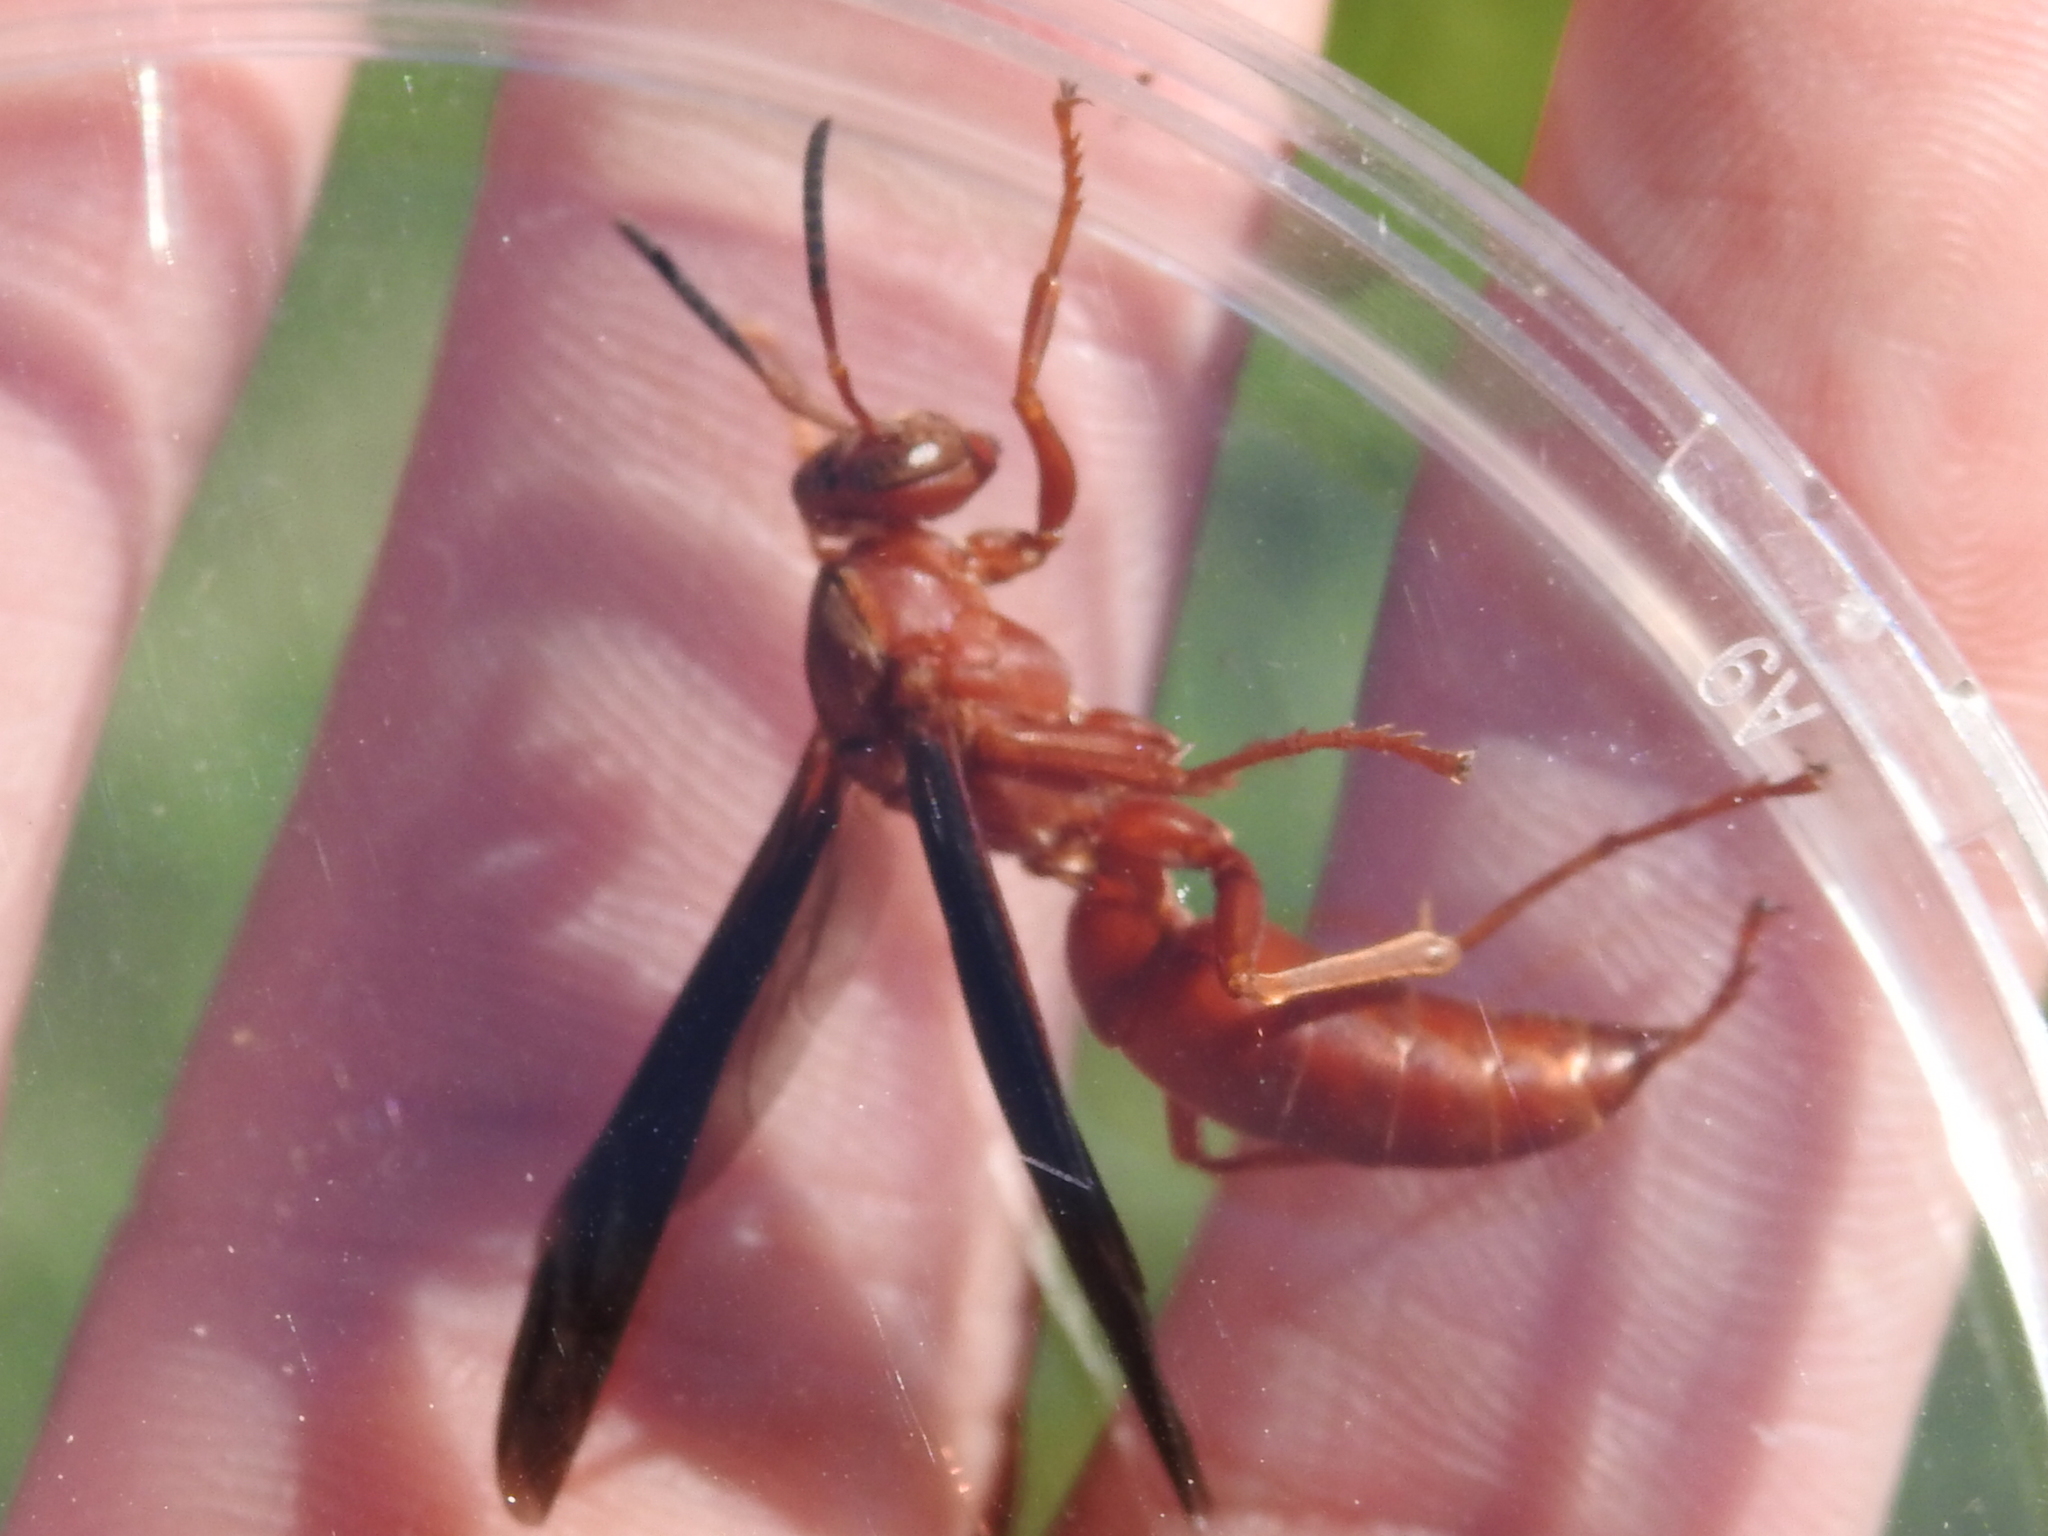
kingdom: Animalia
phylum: Arthropoda
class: Insecta
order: Hymenoptera
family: Vespidae
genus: Fuscopolistes
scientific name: Fuscopolistes
